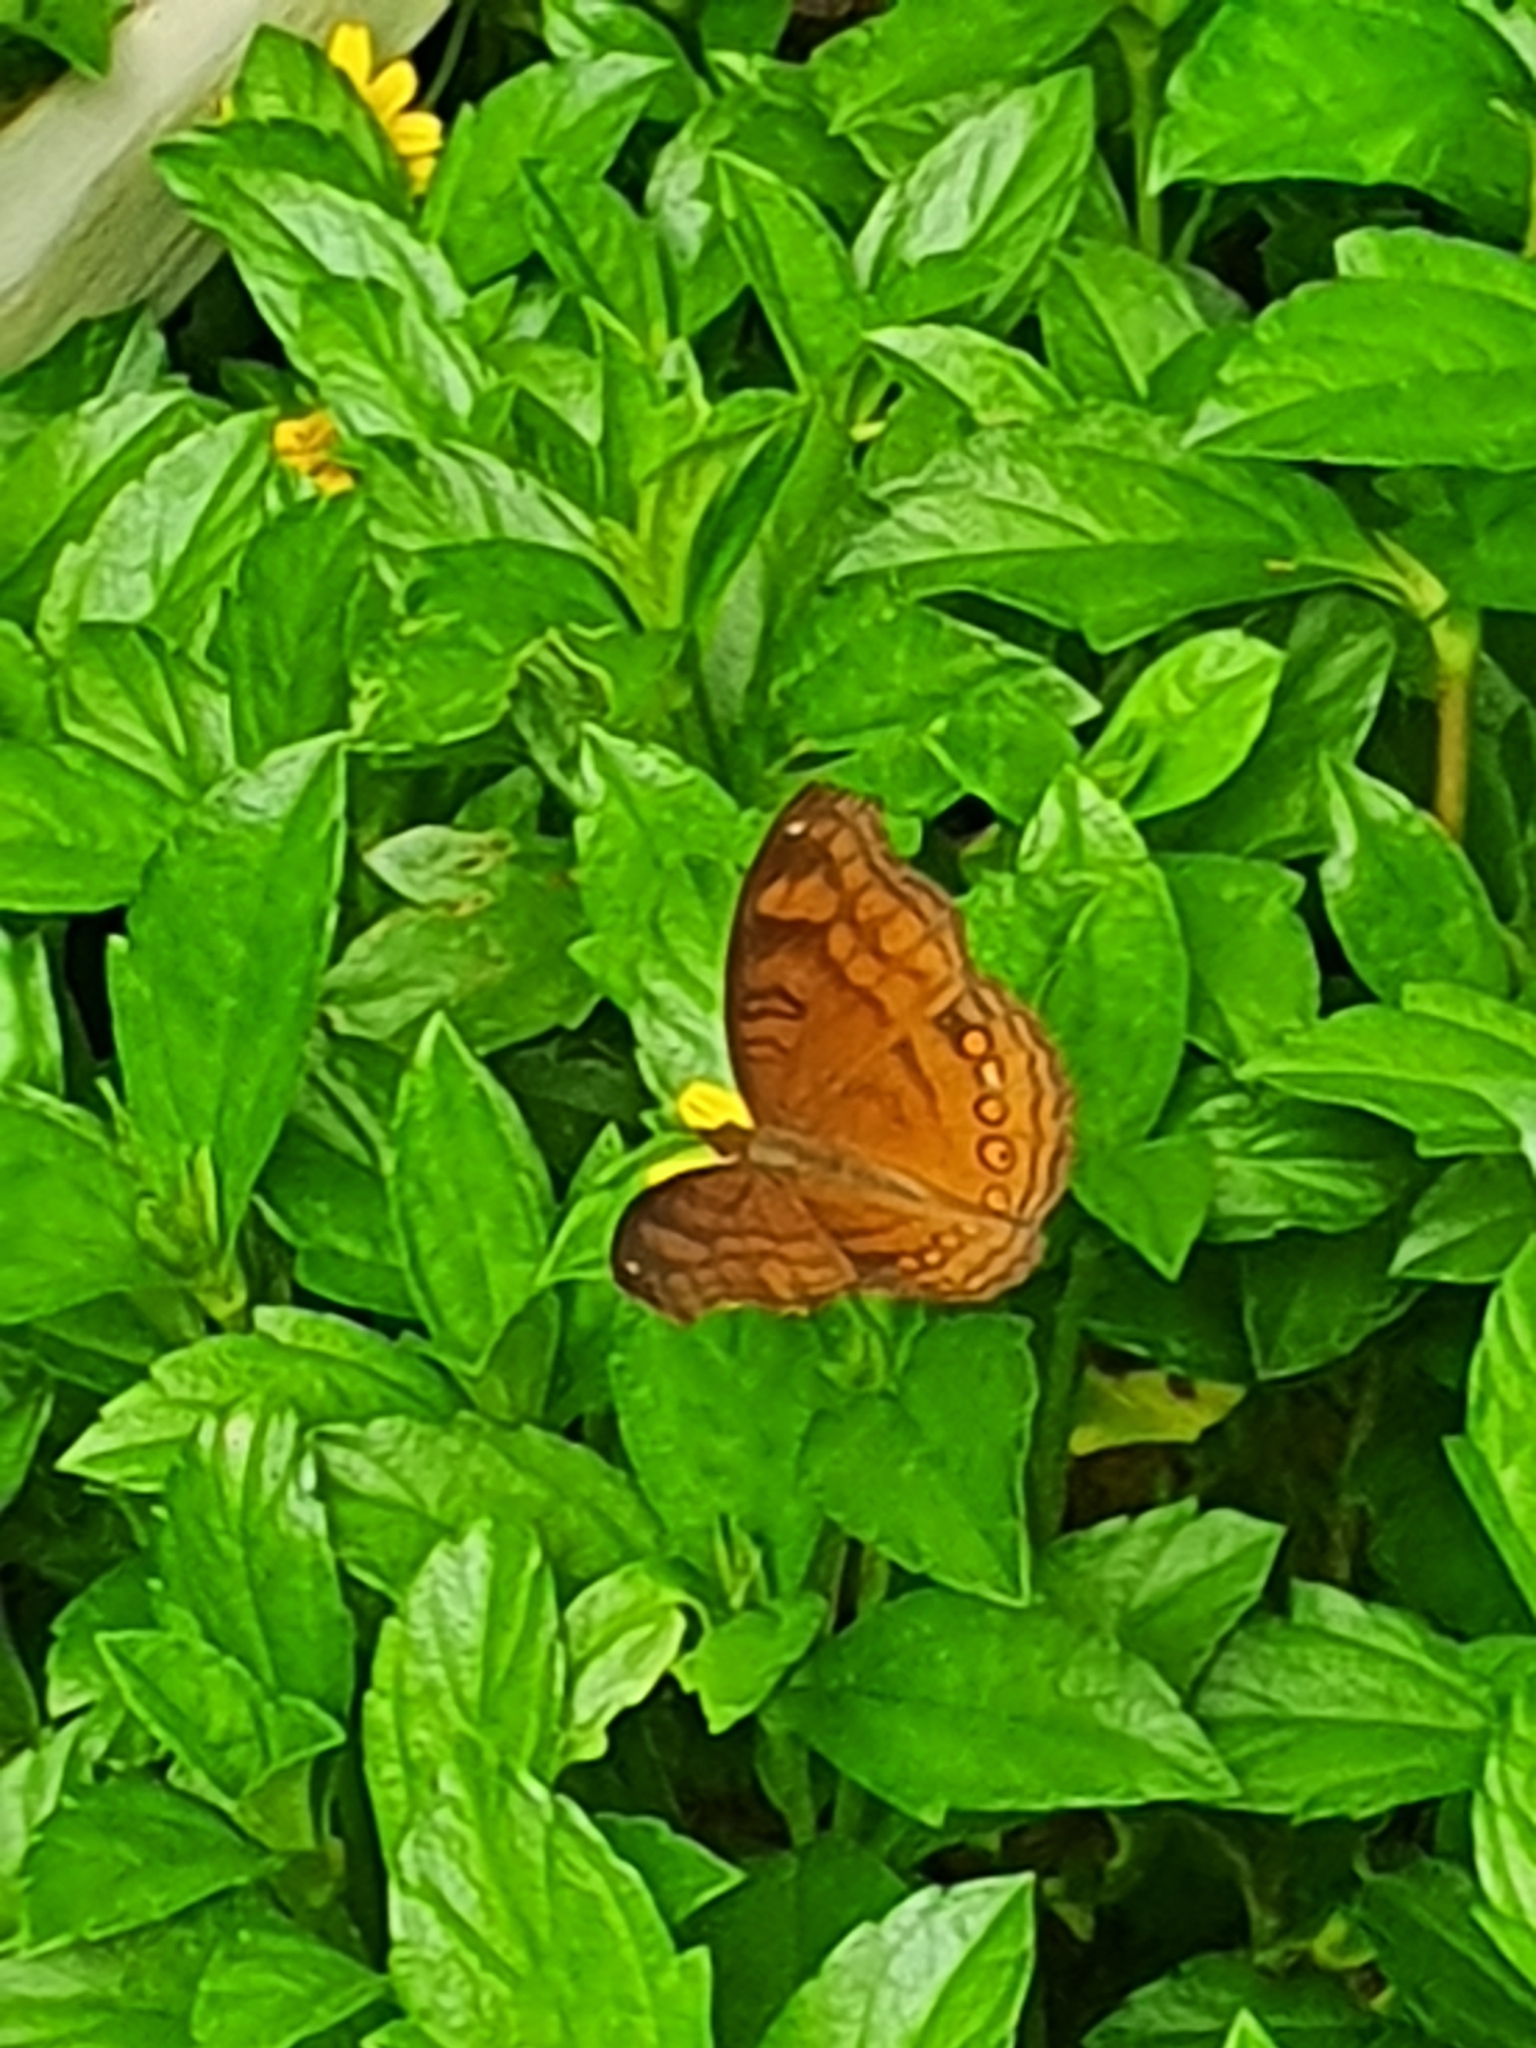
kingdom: Animalia
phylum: Arthropoda
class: Insecta
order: Lepidoptera
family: Nymphalidae
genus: Junonia
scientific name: Junonia hedonia
